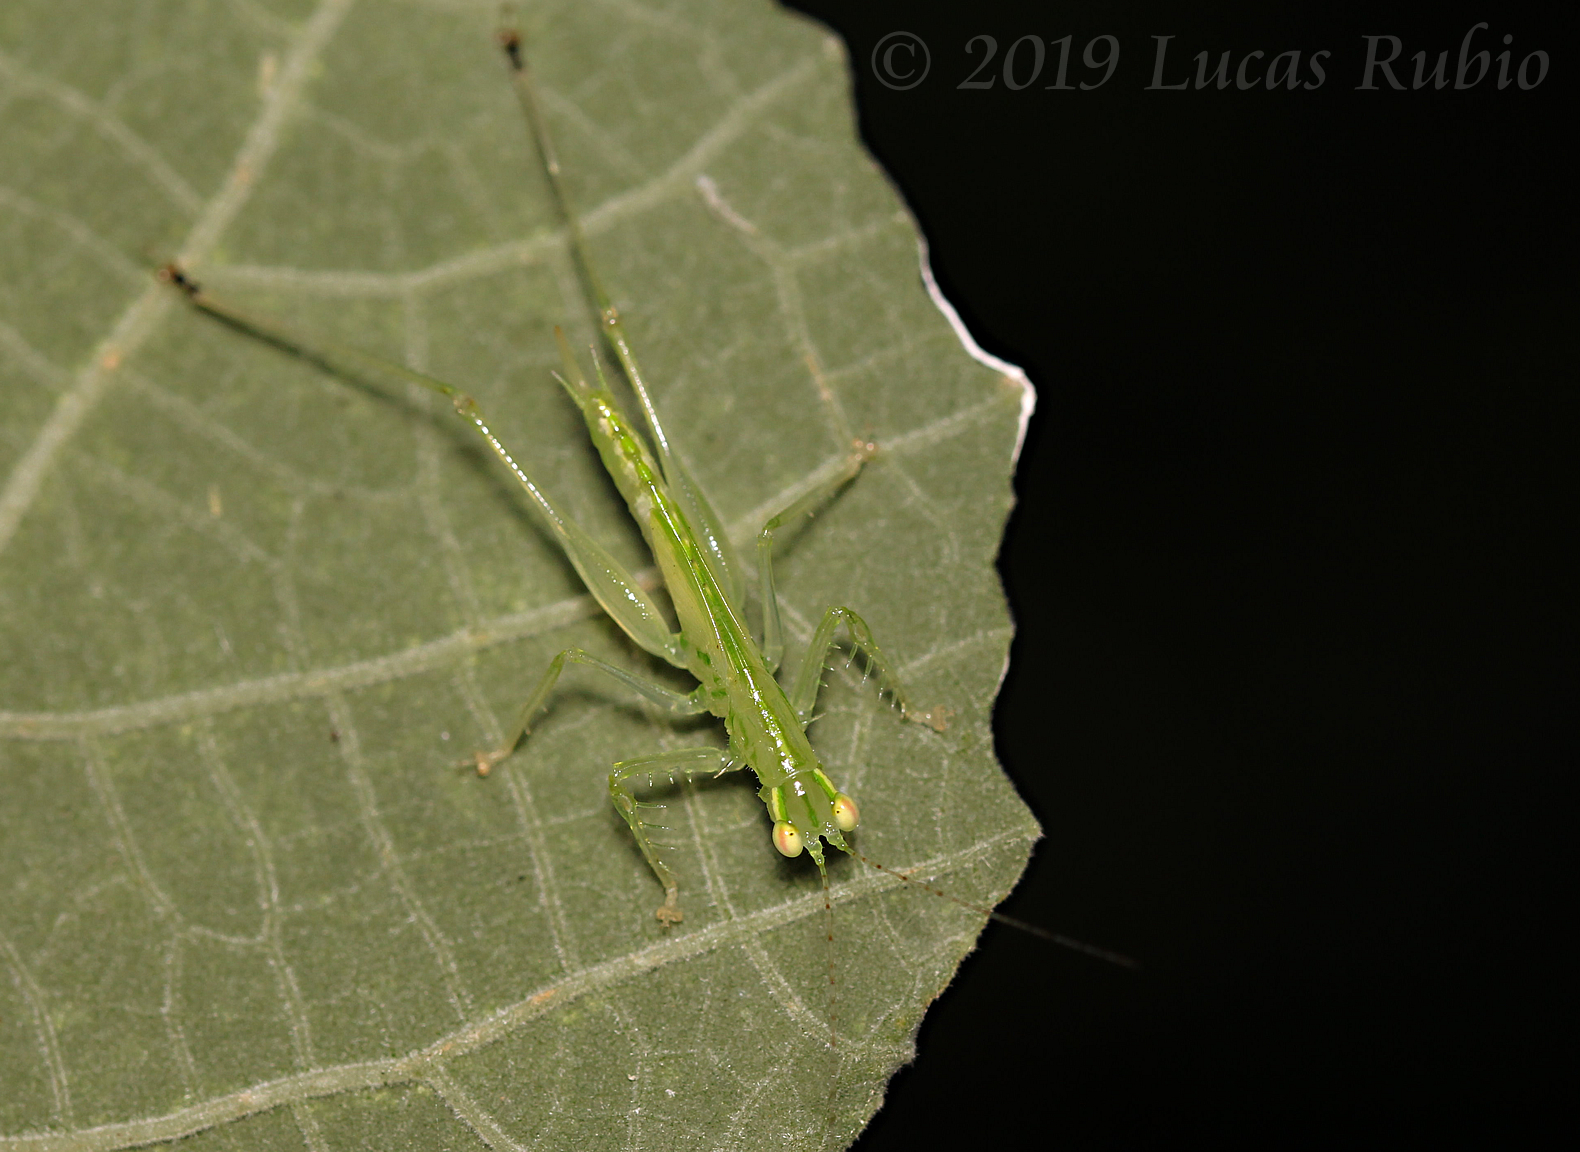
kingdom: Animalia
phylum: Arthropoda
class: Insecta
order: Orthoptera
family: Tettigoniidae
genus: Phlugis
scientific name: Phlugis proseni
